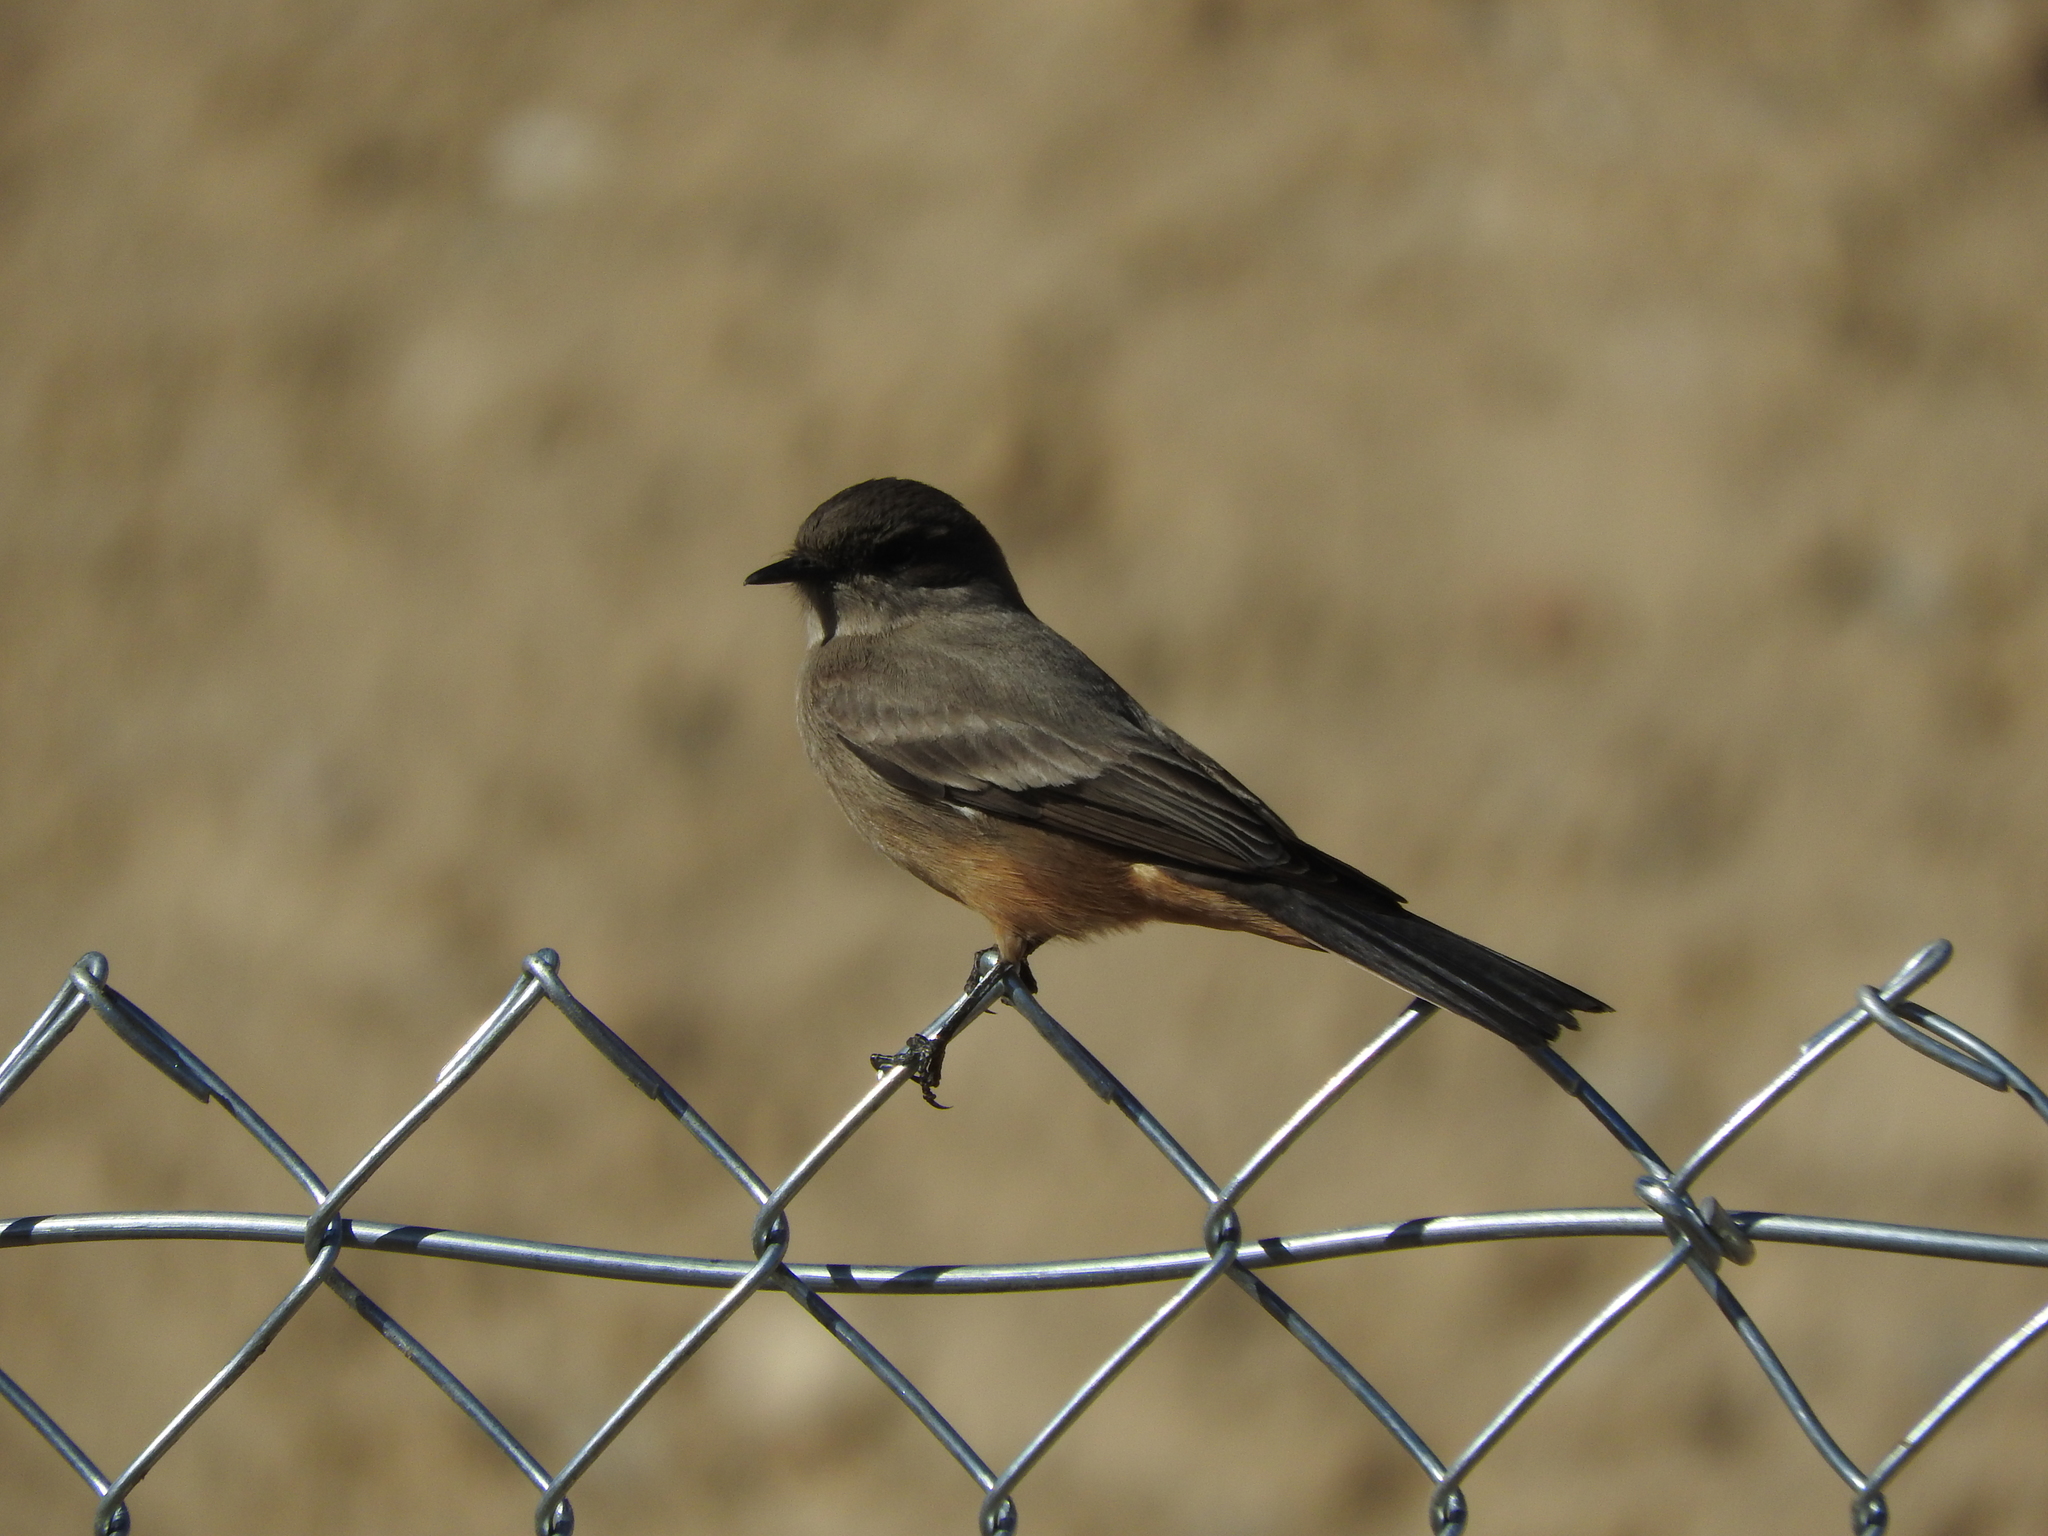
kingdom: Animalia
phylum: Chordata
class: Aves
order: Passeriformes
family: Tyrannidae
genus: Sayornis
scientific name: Sayornis saya
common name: Say's phoebe
